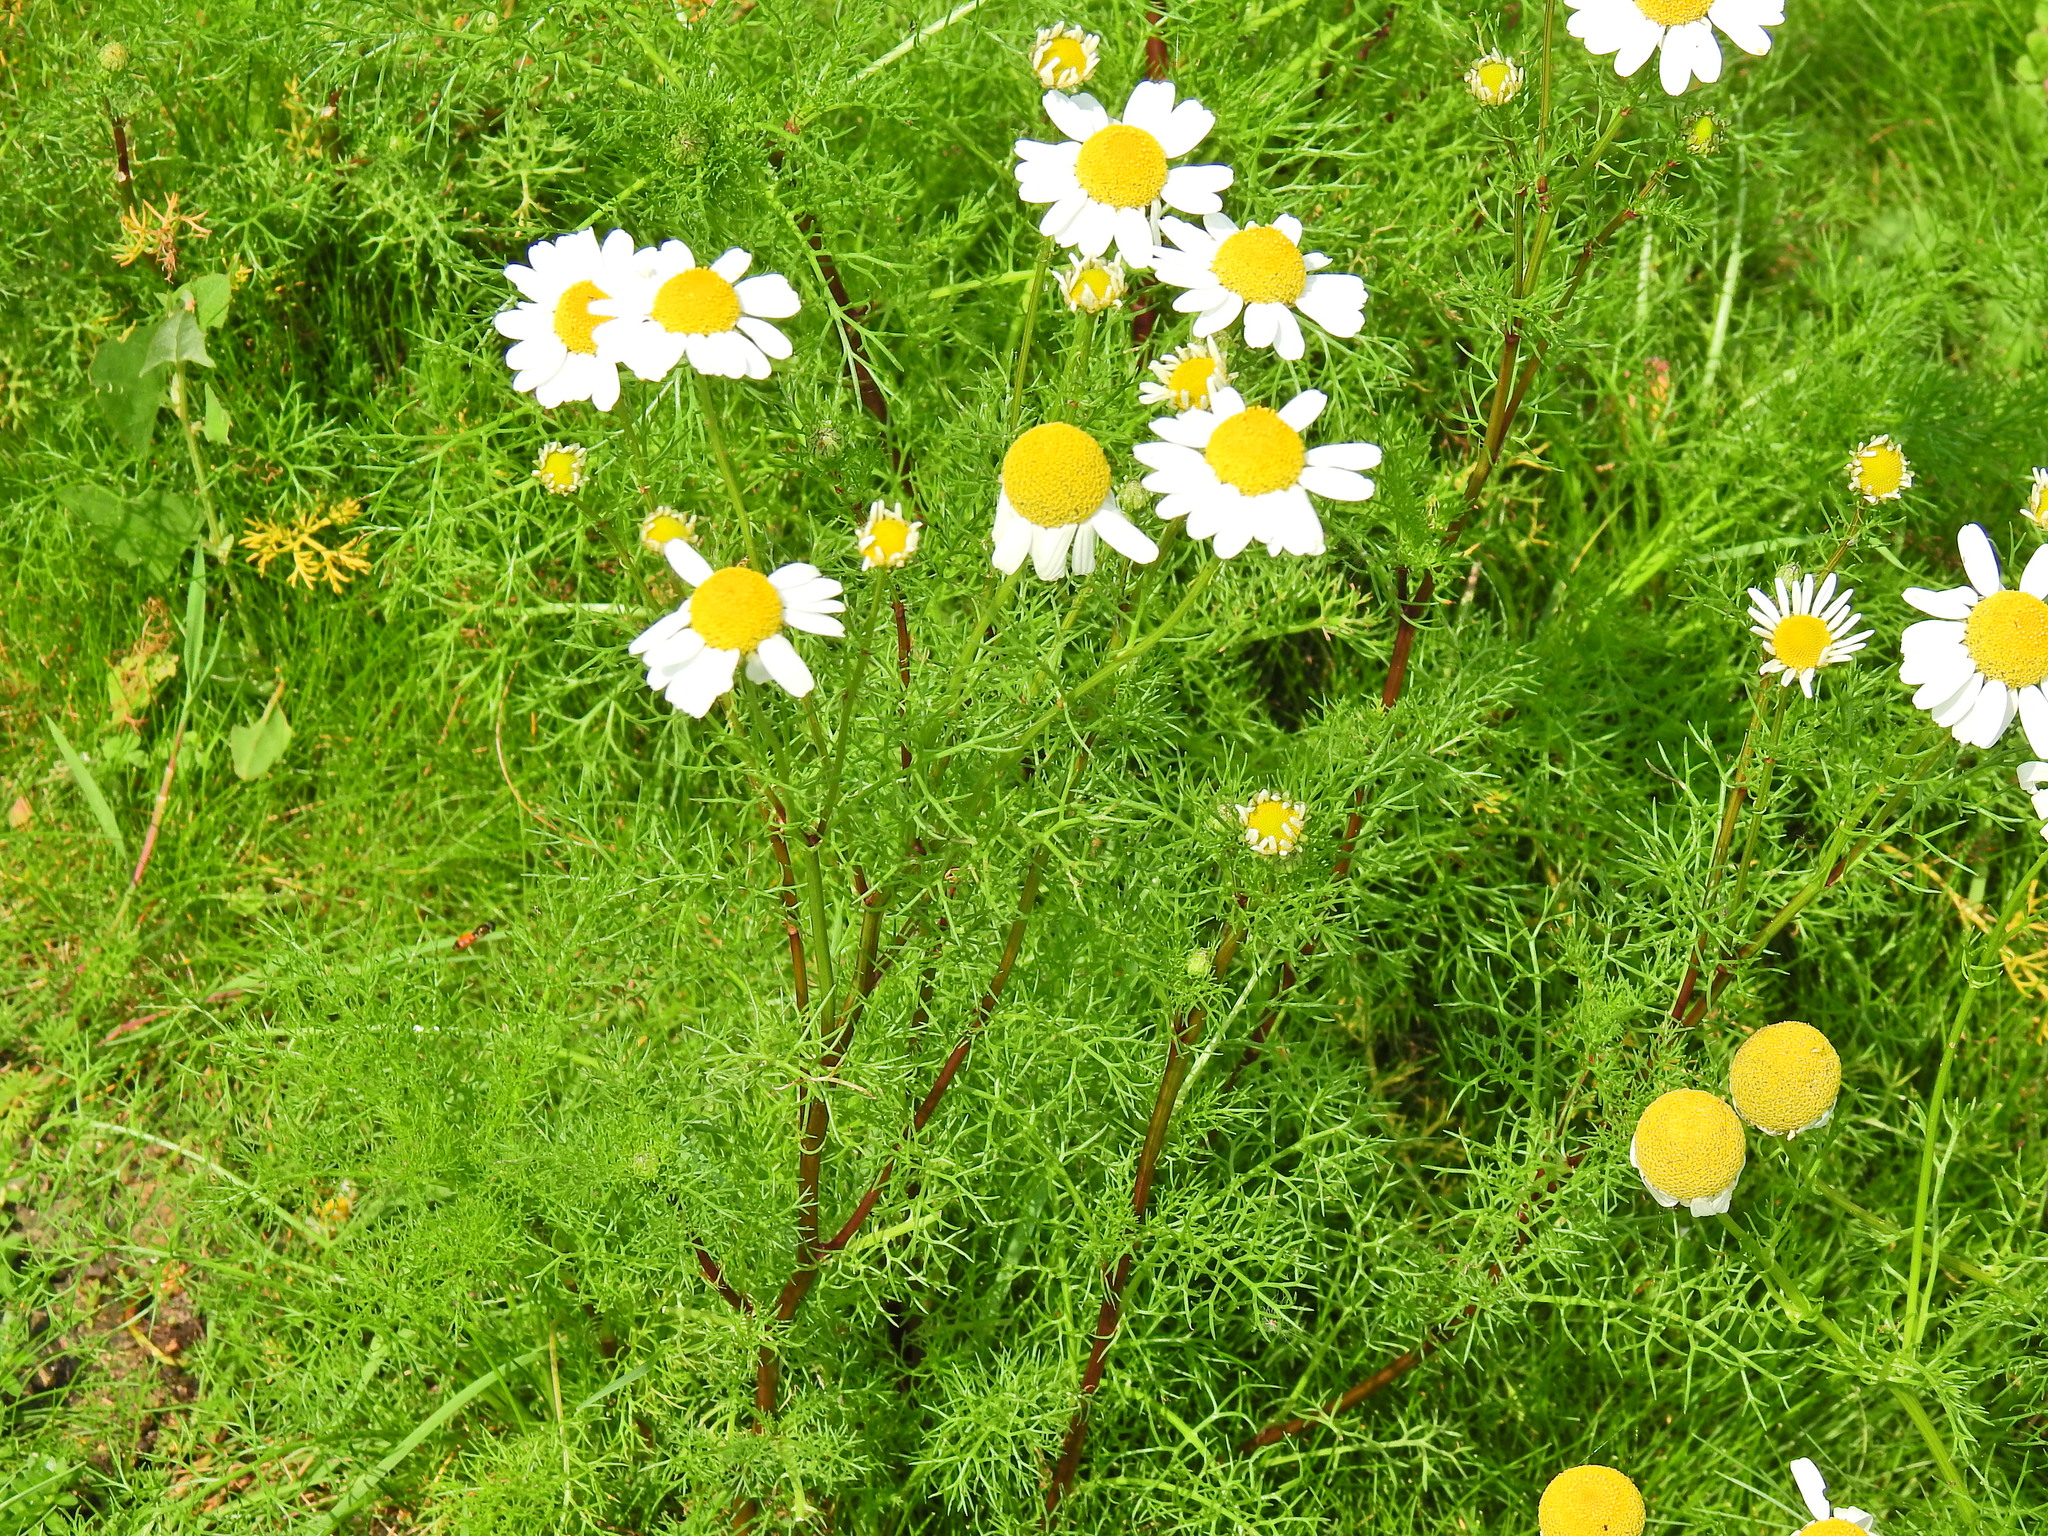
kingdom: Plantae
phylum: Tracheophyta
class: Magnoliopsida
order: Asterales
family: Asteraceae
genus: Tripleurospermum
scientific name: Tripleurospermum inodorum
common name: Scentless mayweed
